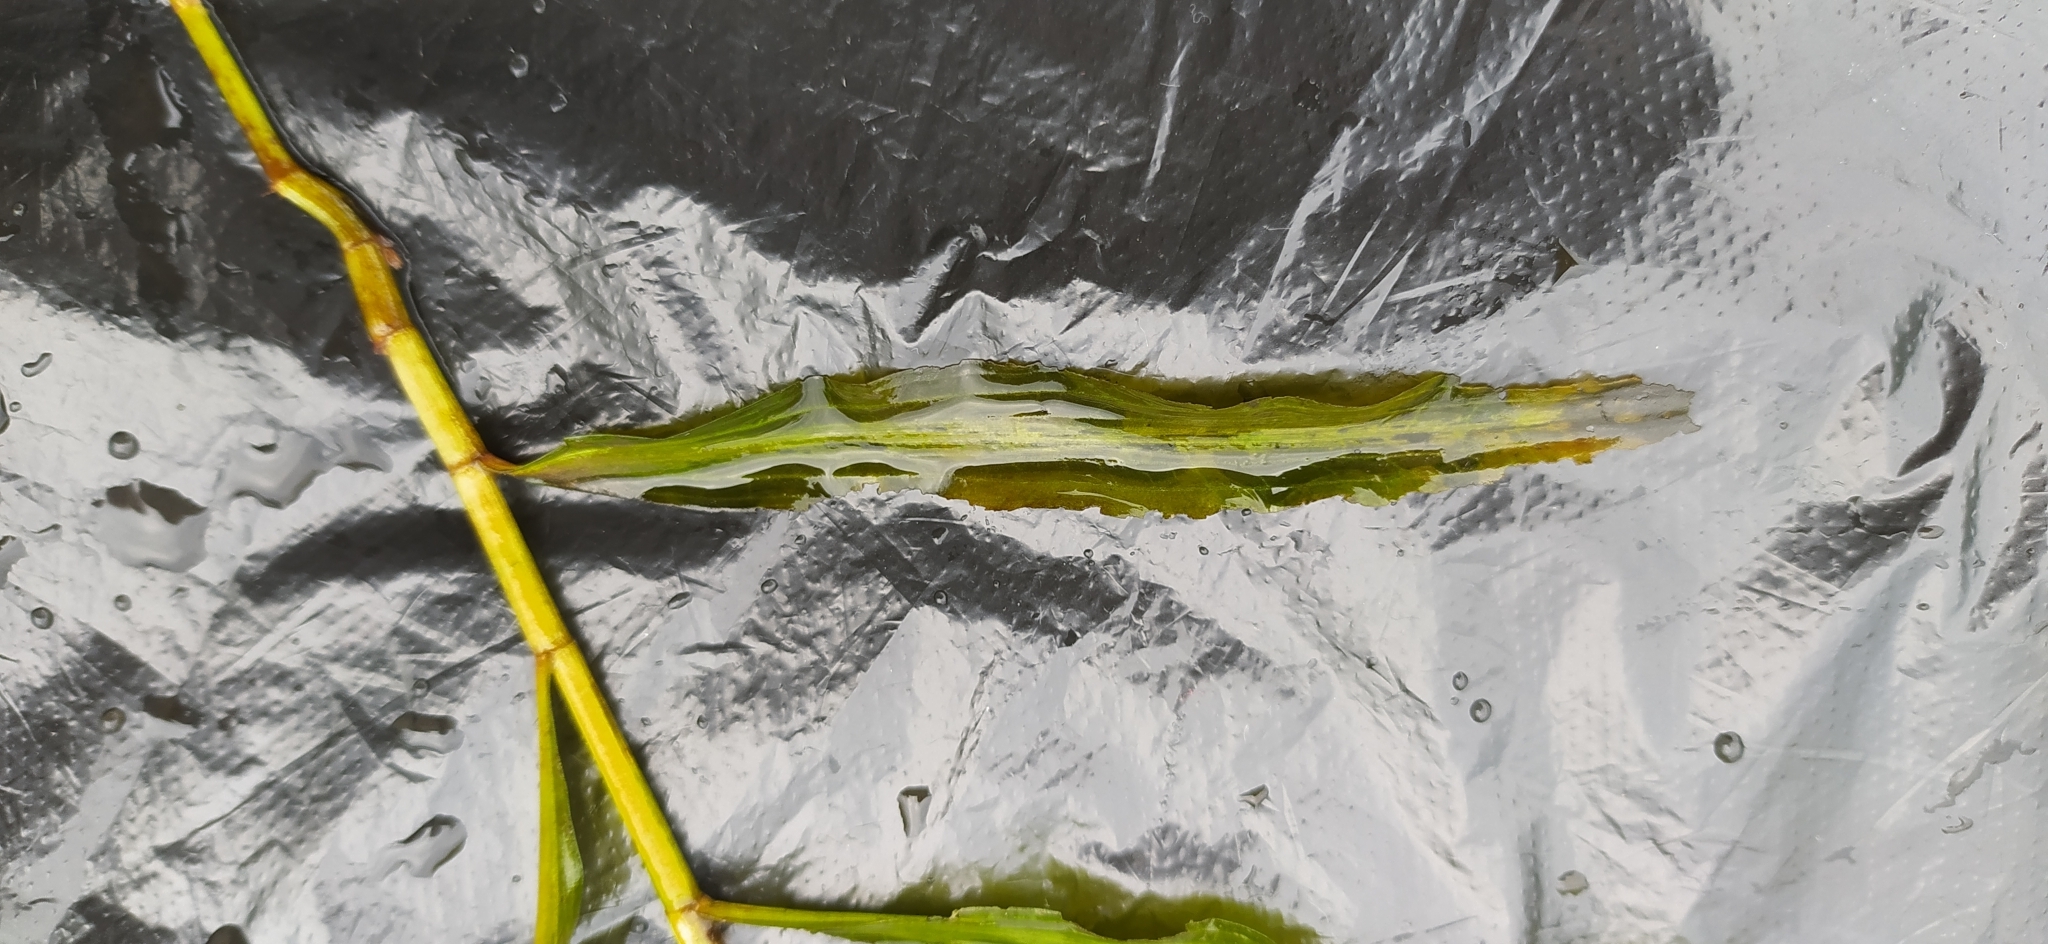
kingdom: Plantae
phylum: Tracheophyta
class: Liliopsida
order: Alismatales
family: Potamogetonaceae
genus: Potamogeton
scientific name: Potamogeton alpinus
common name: Red pondweed
